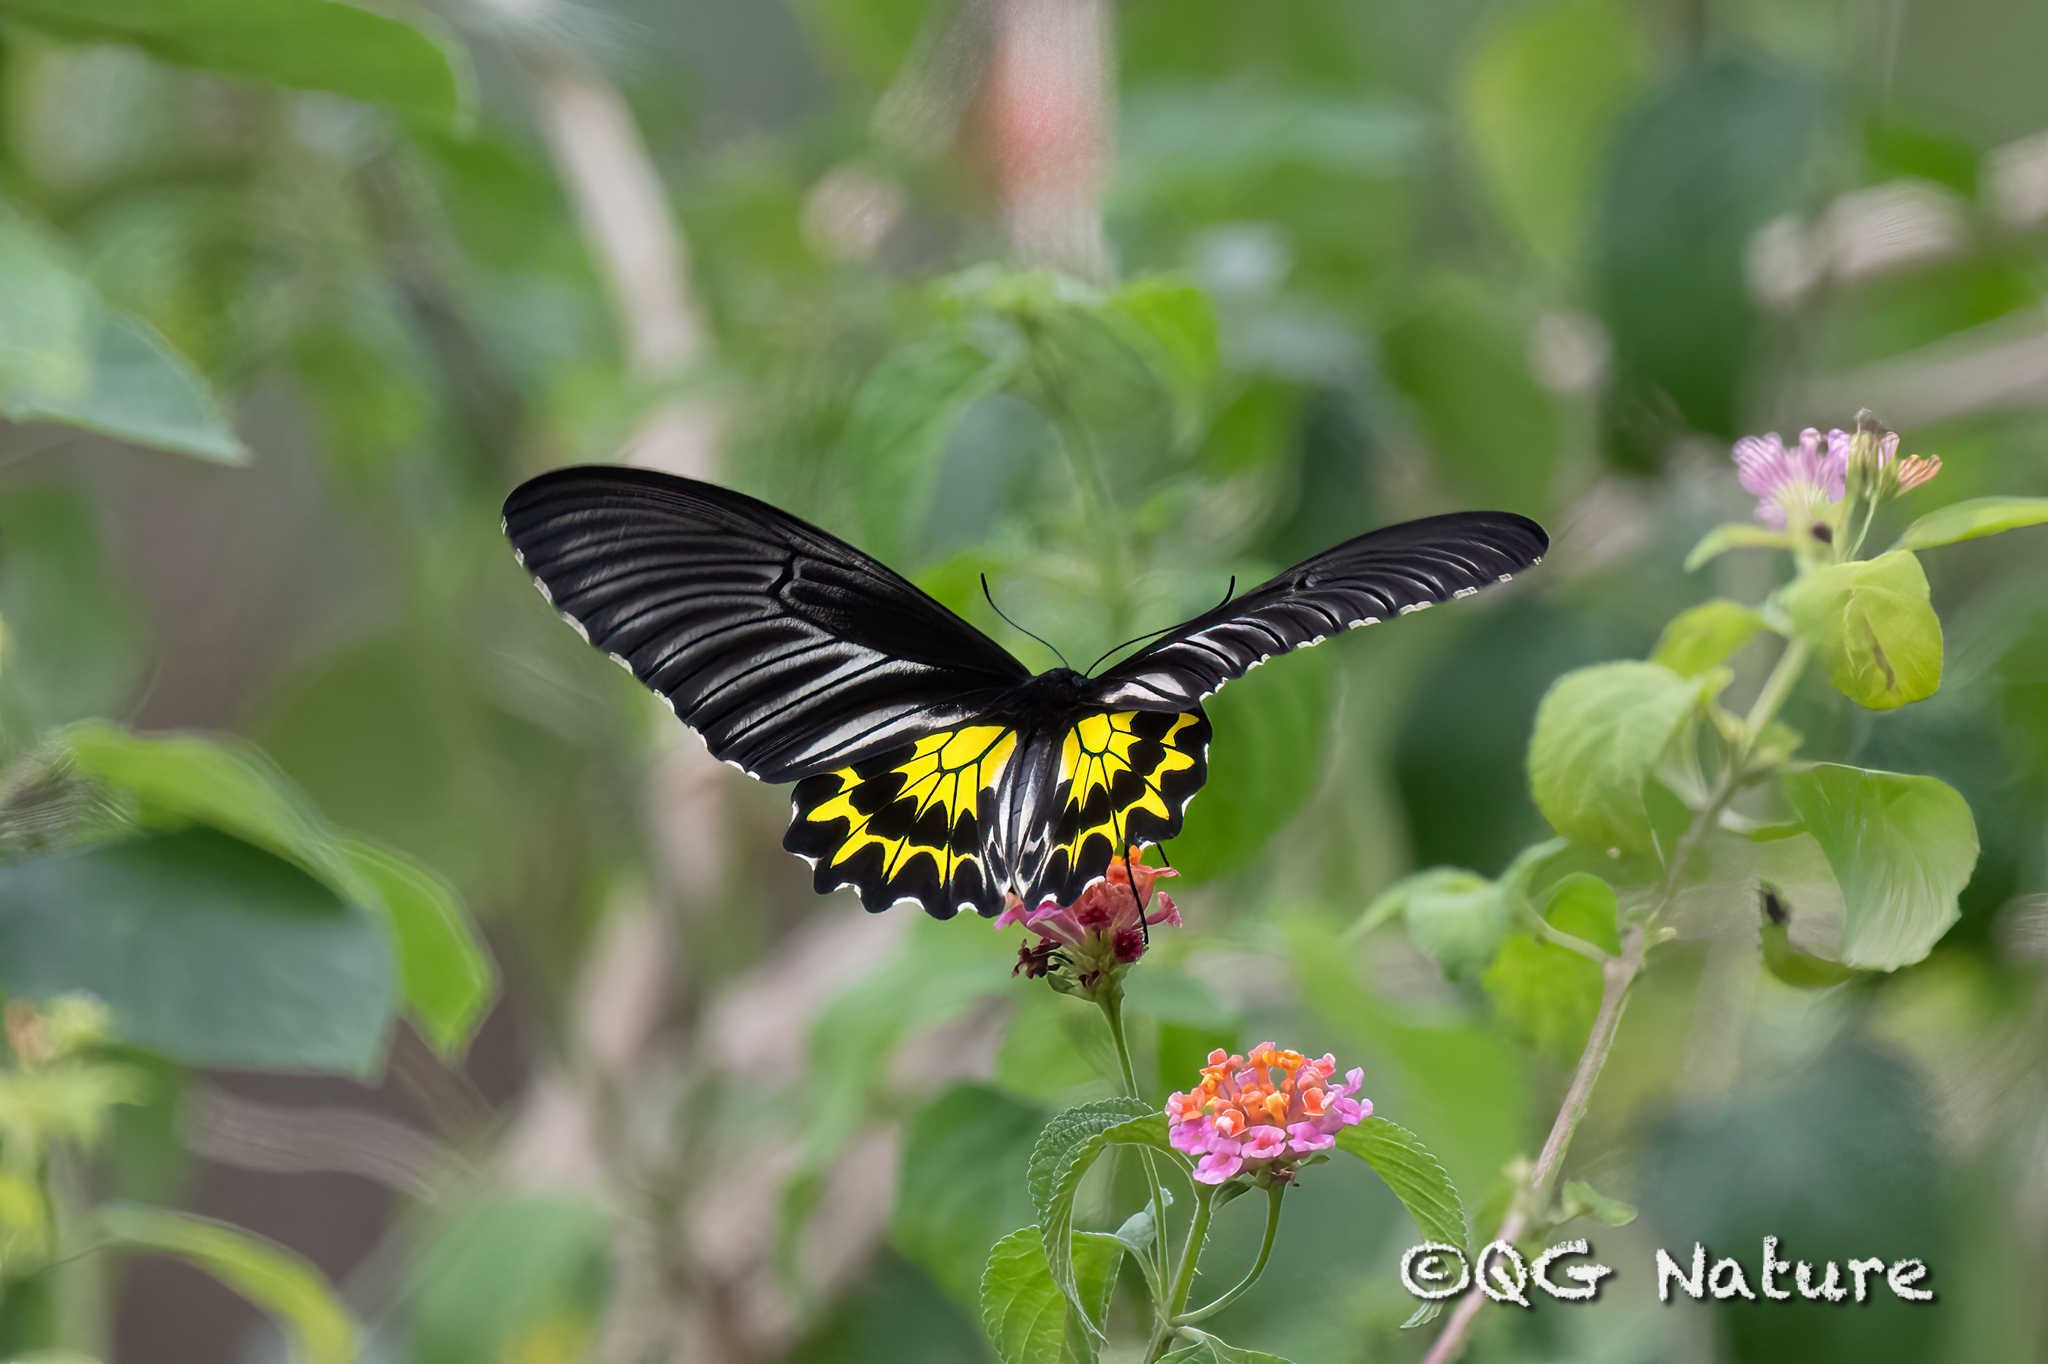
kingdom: Animalia
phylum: Arthropoda
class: Insecta
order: Lepidoptera
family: Papilionidae
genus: Troides
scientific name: Troides helena
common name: Common birdwing
